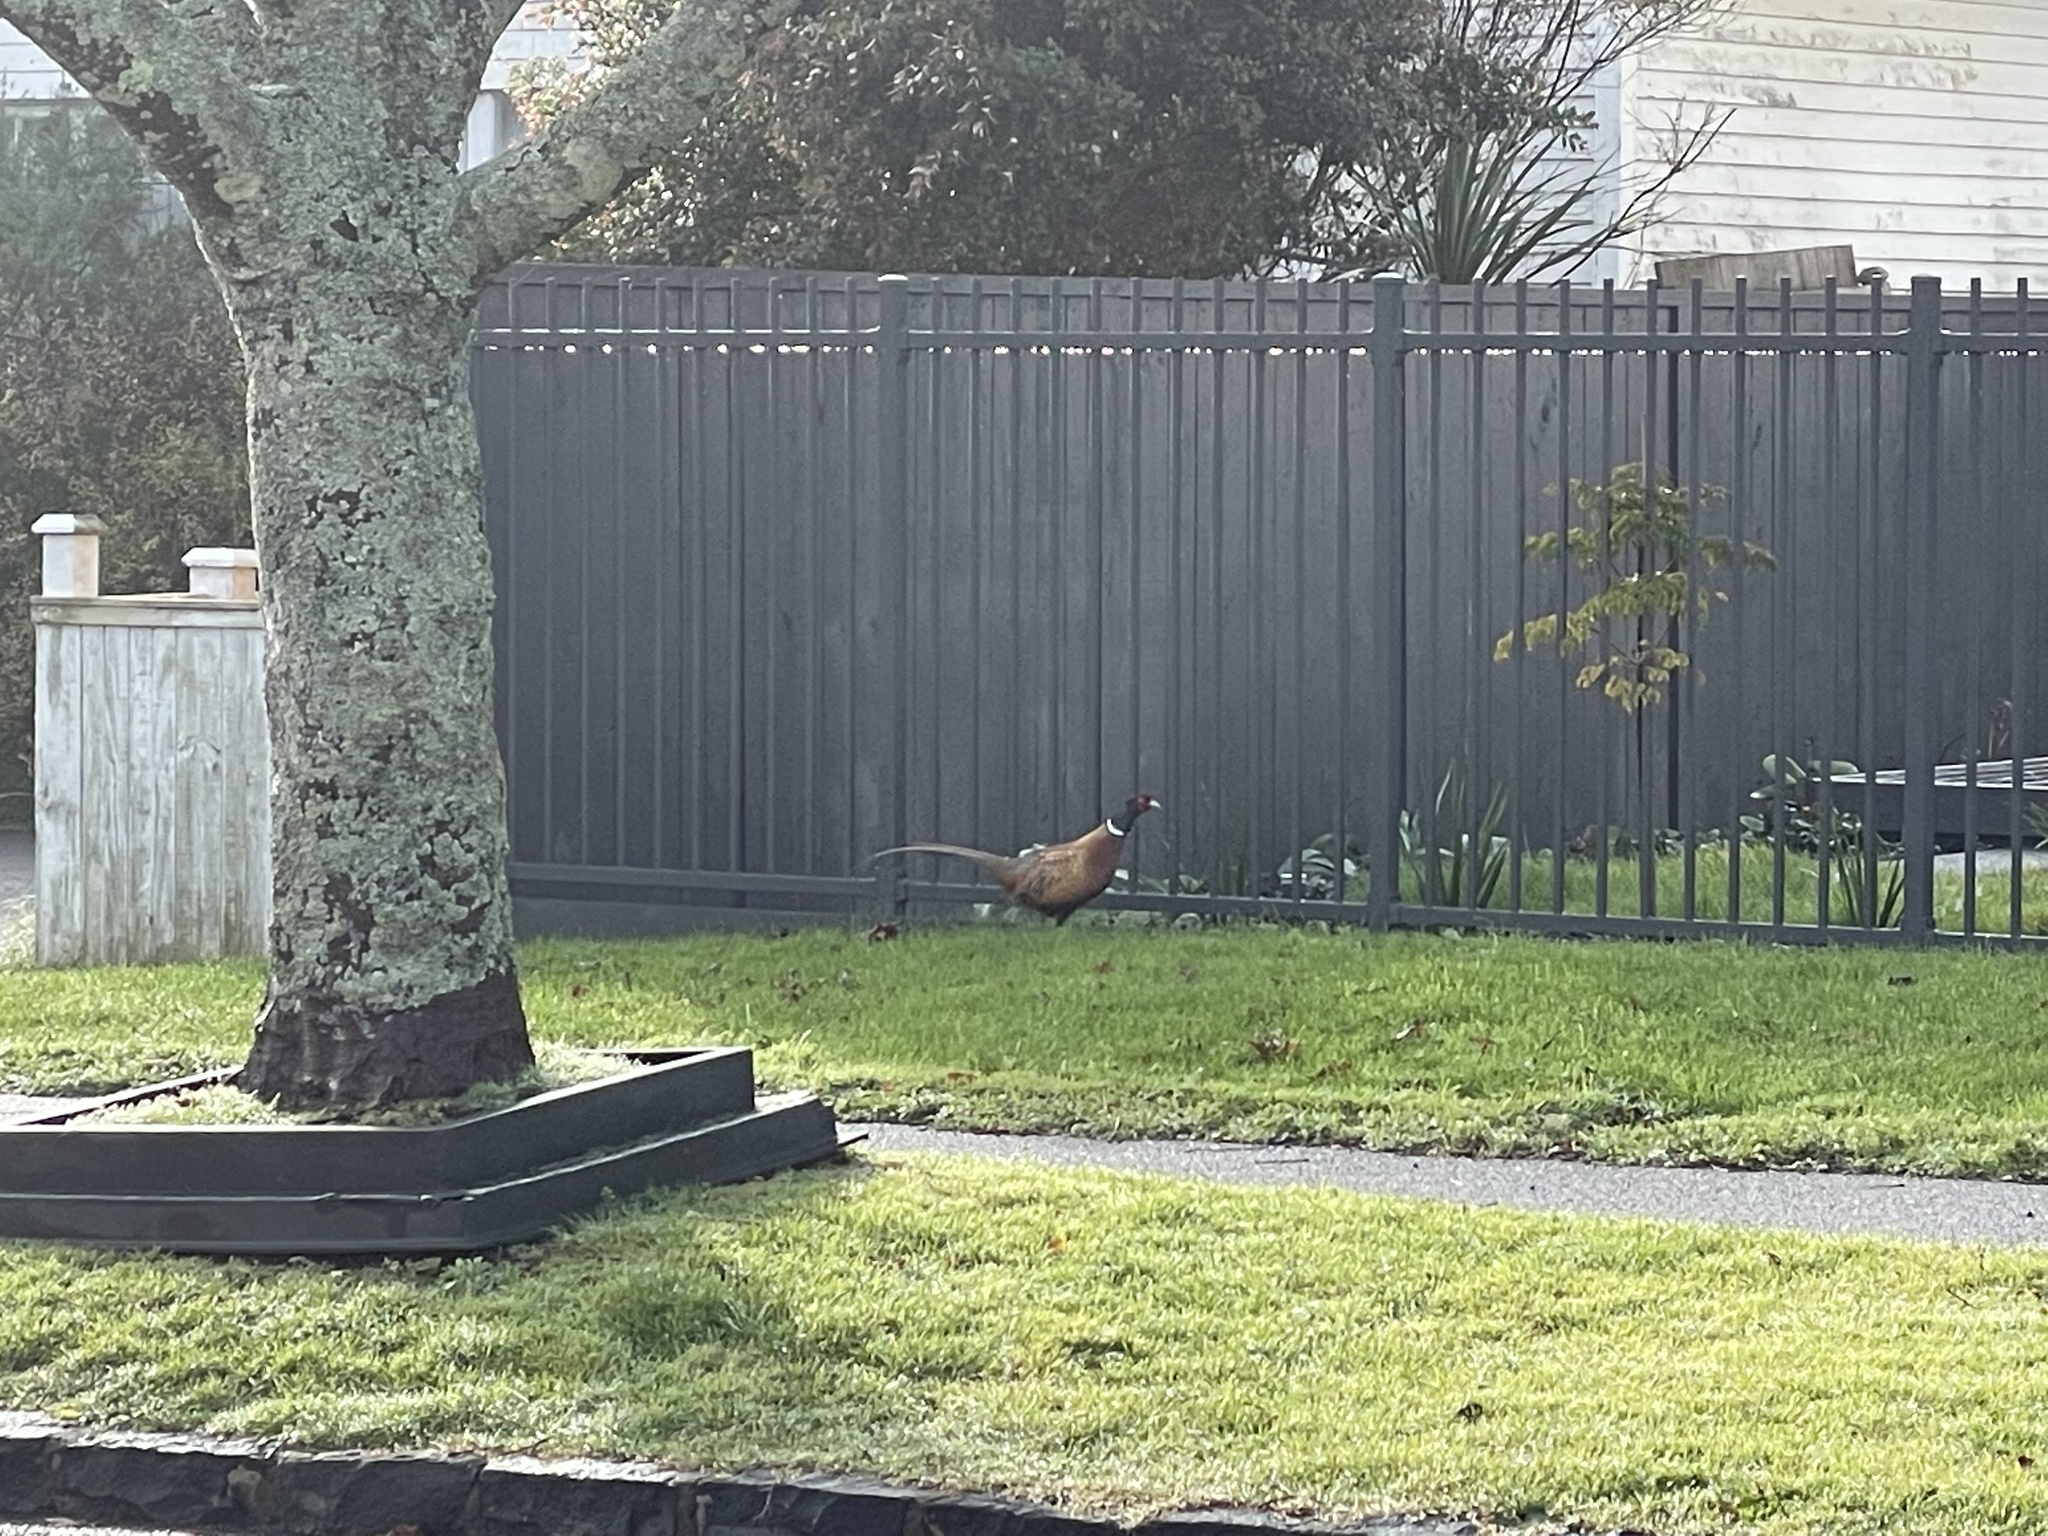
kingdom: Animalia
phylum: Chordata
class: Aves
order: Galliformes
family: Phasianidae
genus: Phasianus
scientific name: Phasianus colchicus
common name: Common pheasant
